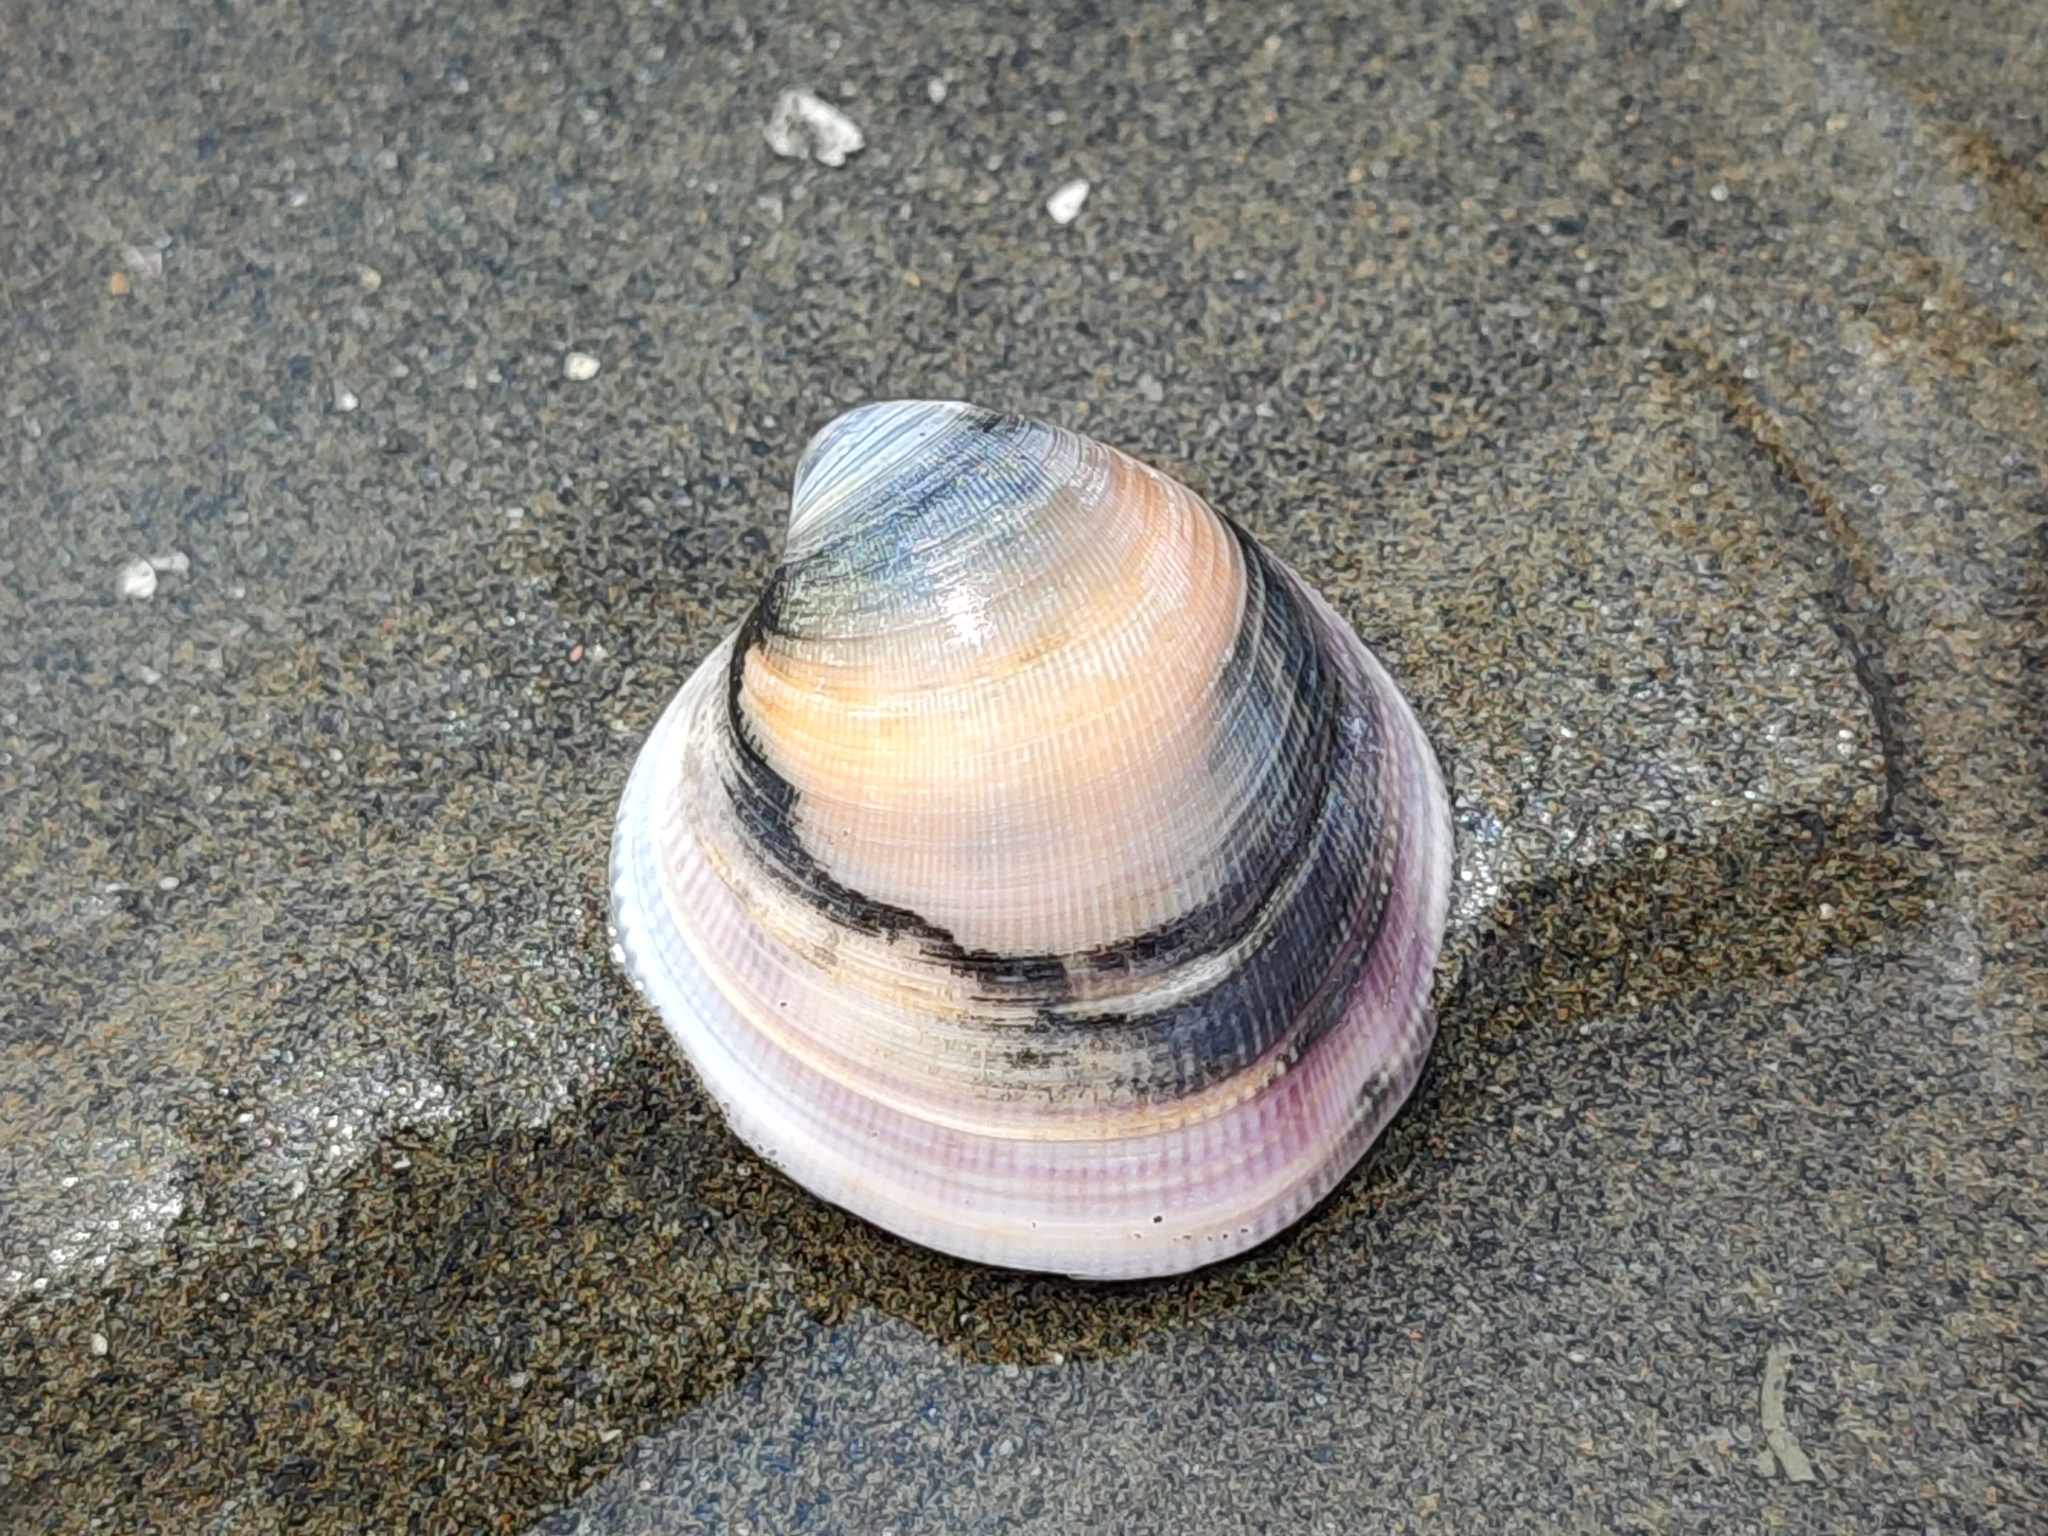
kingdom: Animalia
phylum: Mollusca
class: Bivalvia
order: Venerida
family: Veneridae
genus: Cyclina
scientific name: Cyclina sinensis
